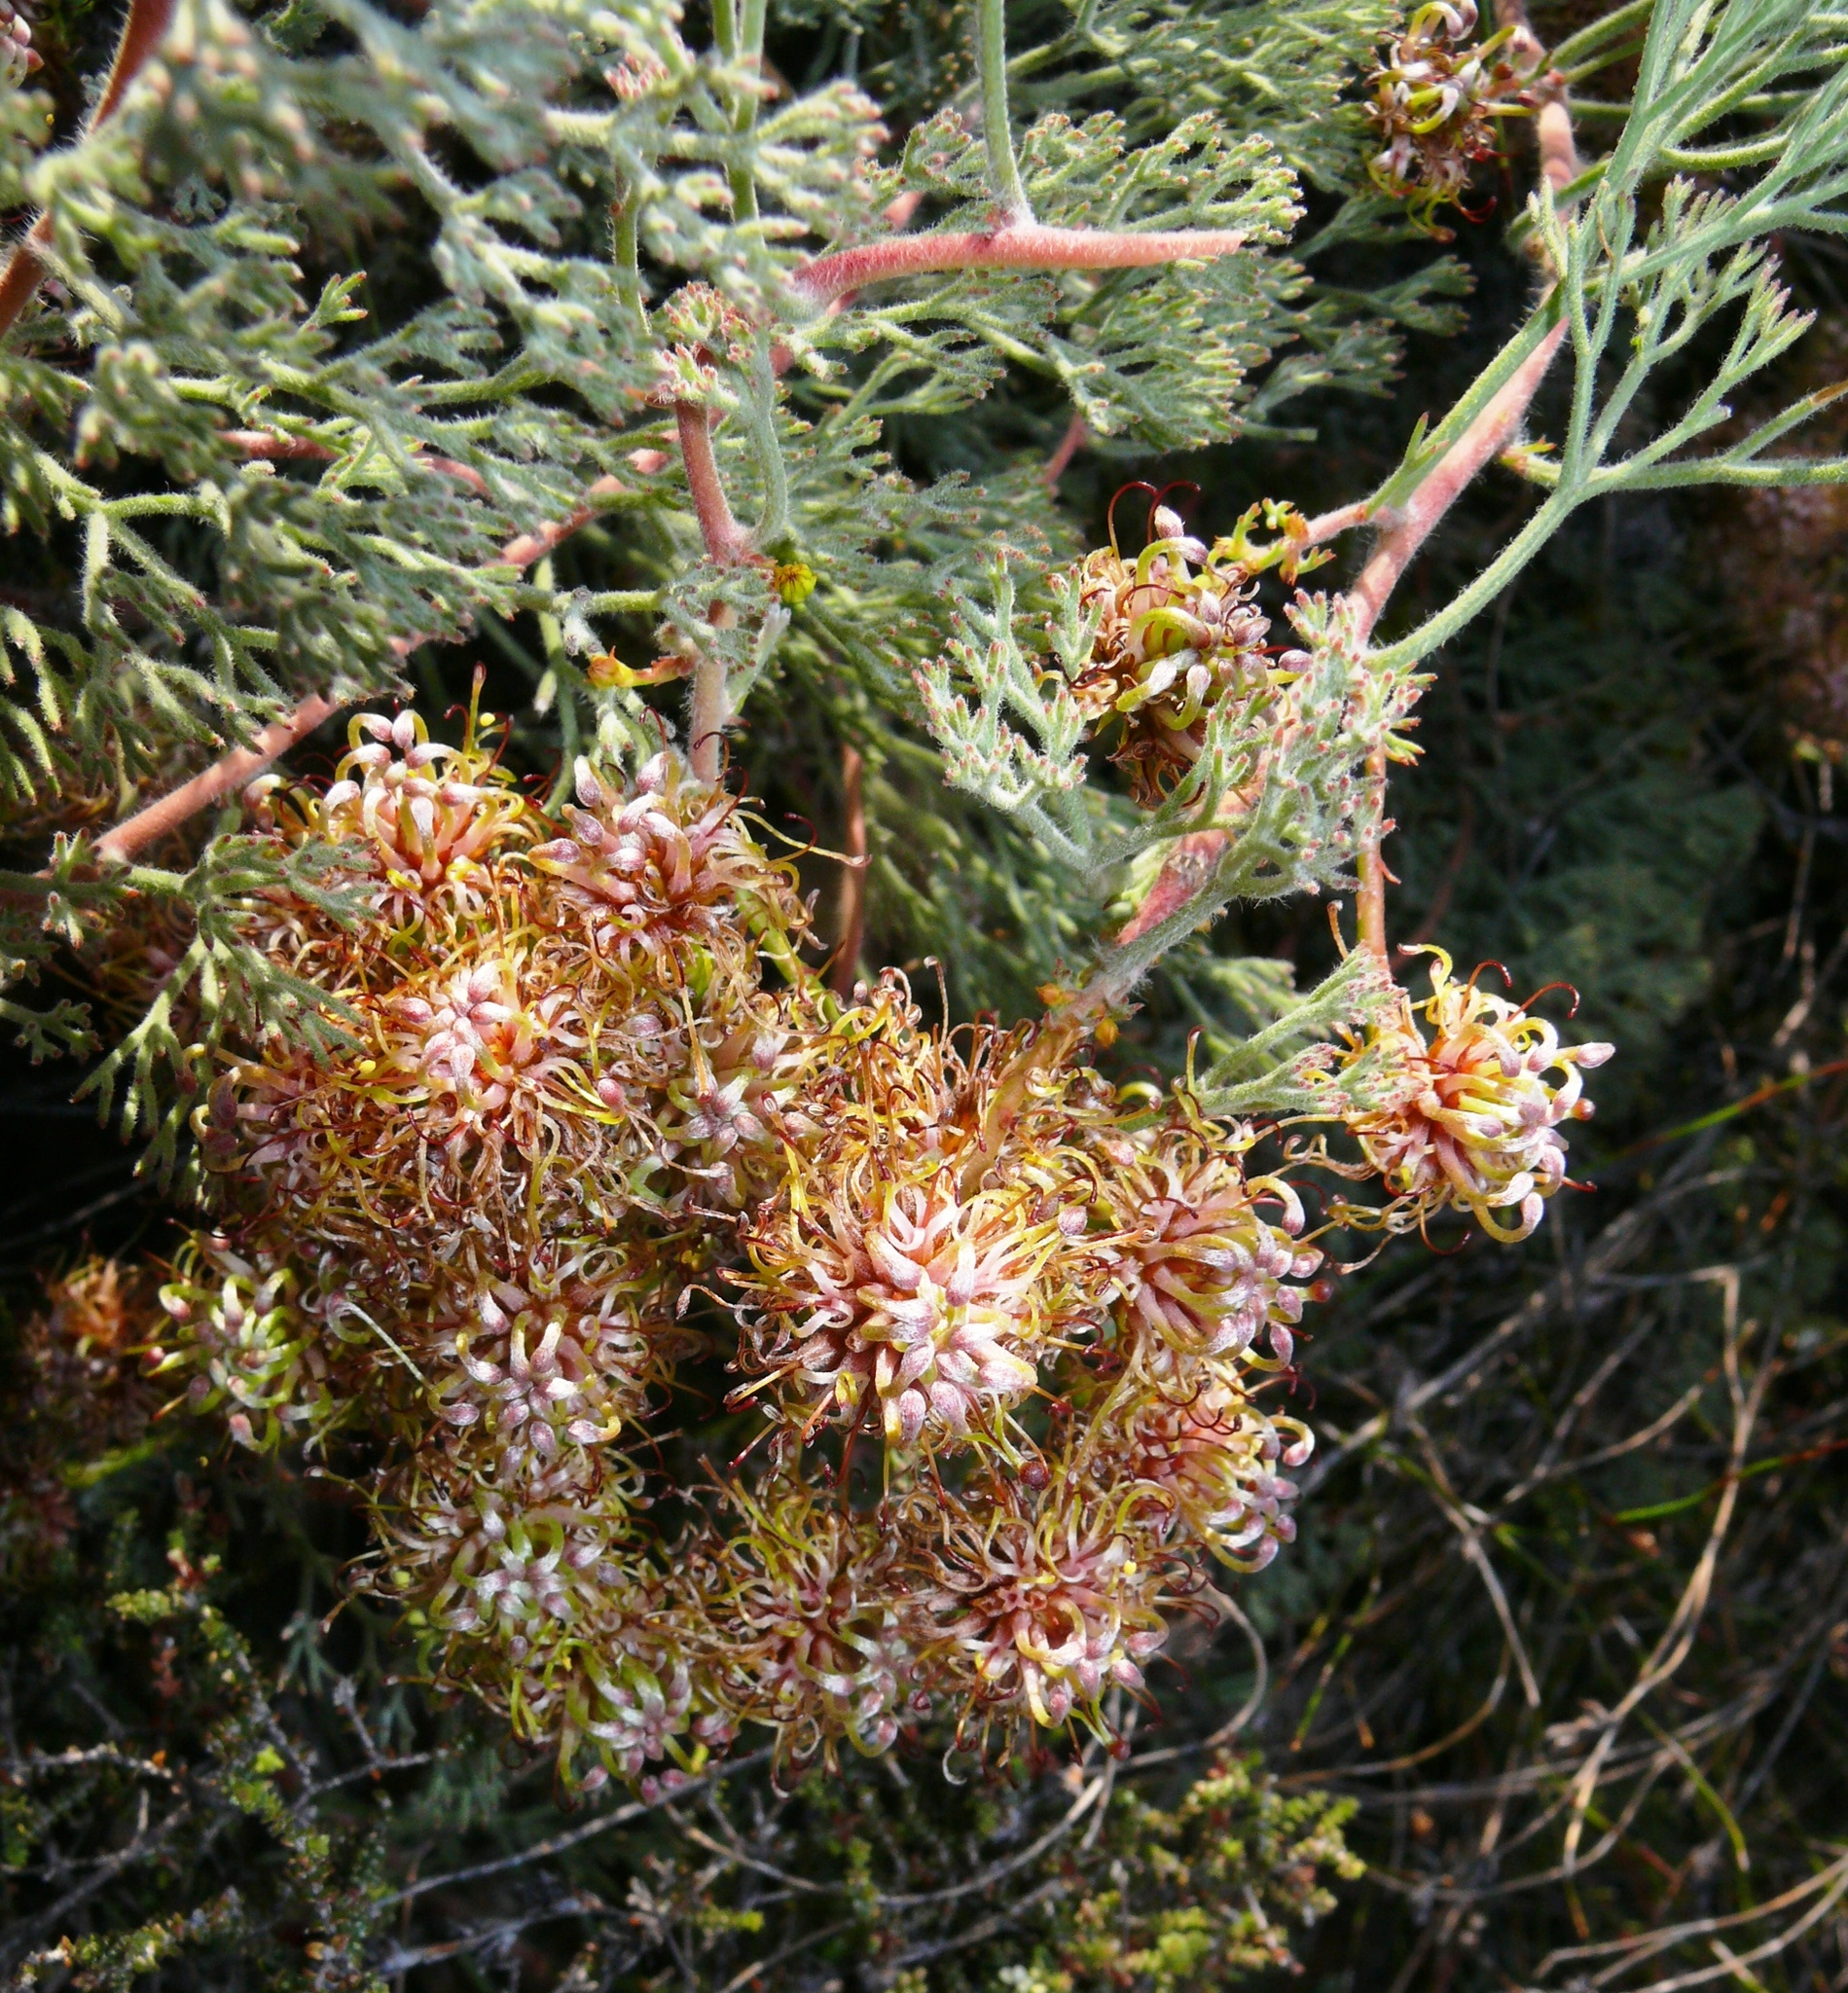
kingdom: Plantae
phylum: Tracheophyta
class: Magnoliopsida
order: Proteales
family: Proteaceae
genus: Serruria
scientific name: Serruria effusa
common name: Candelabra spiderhead
